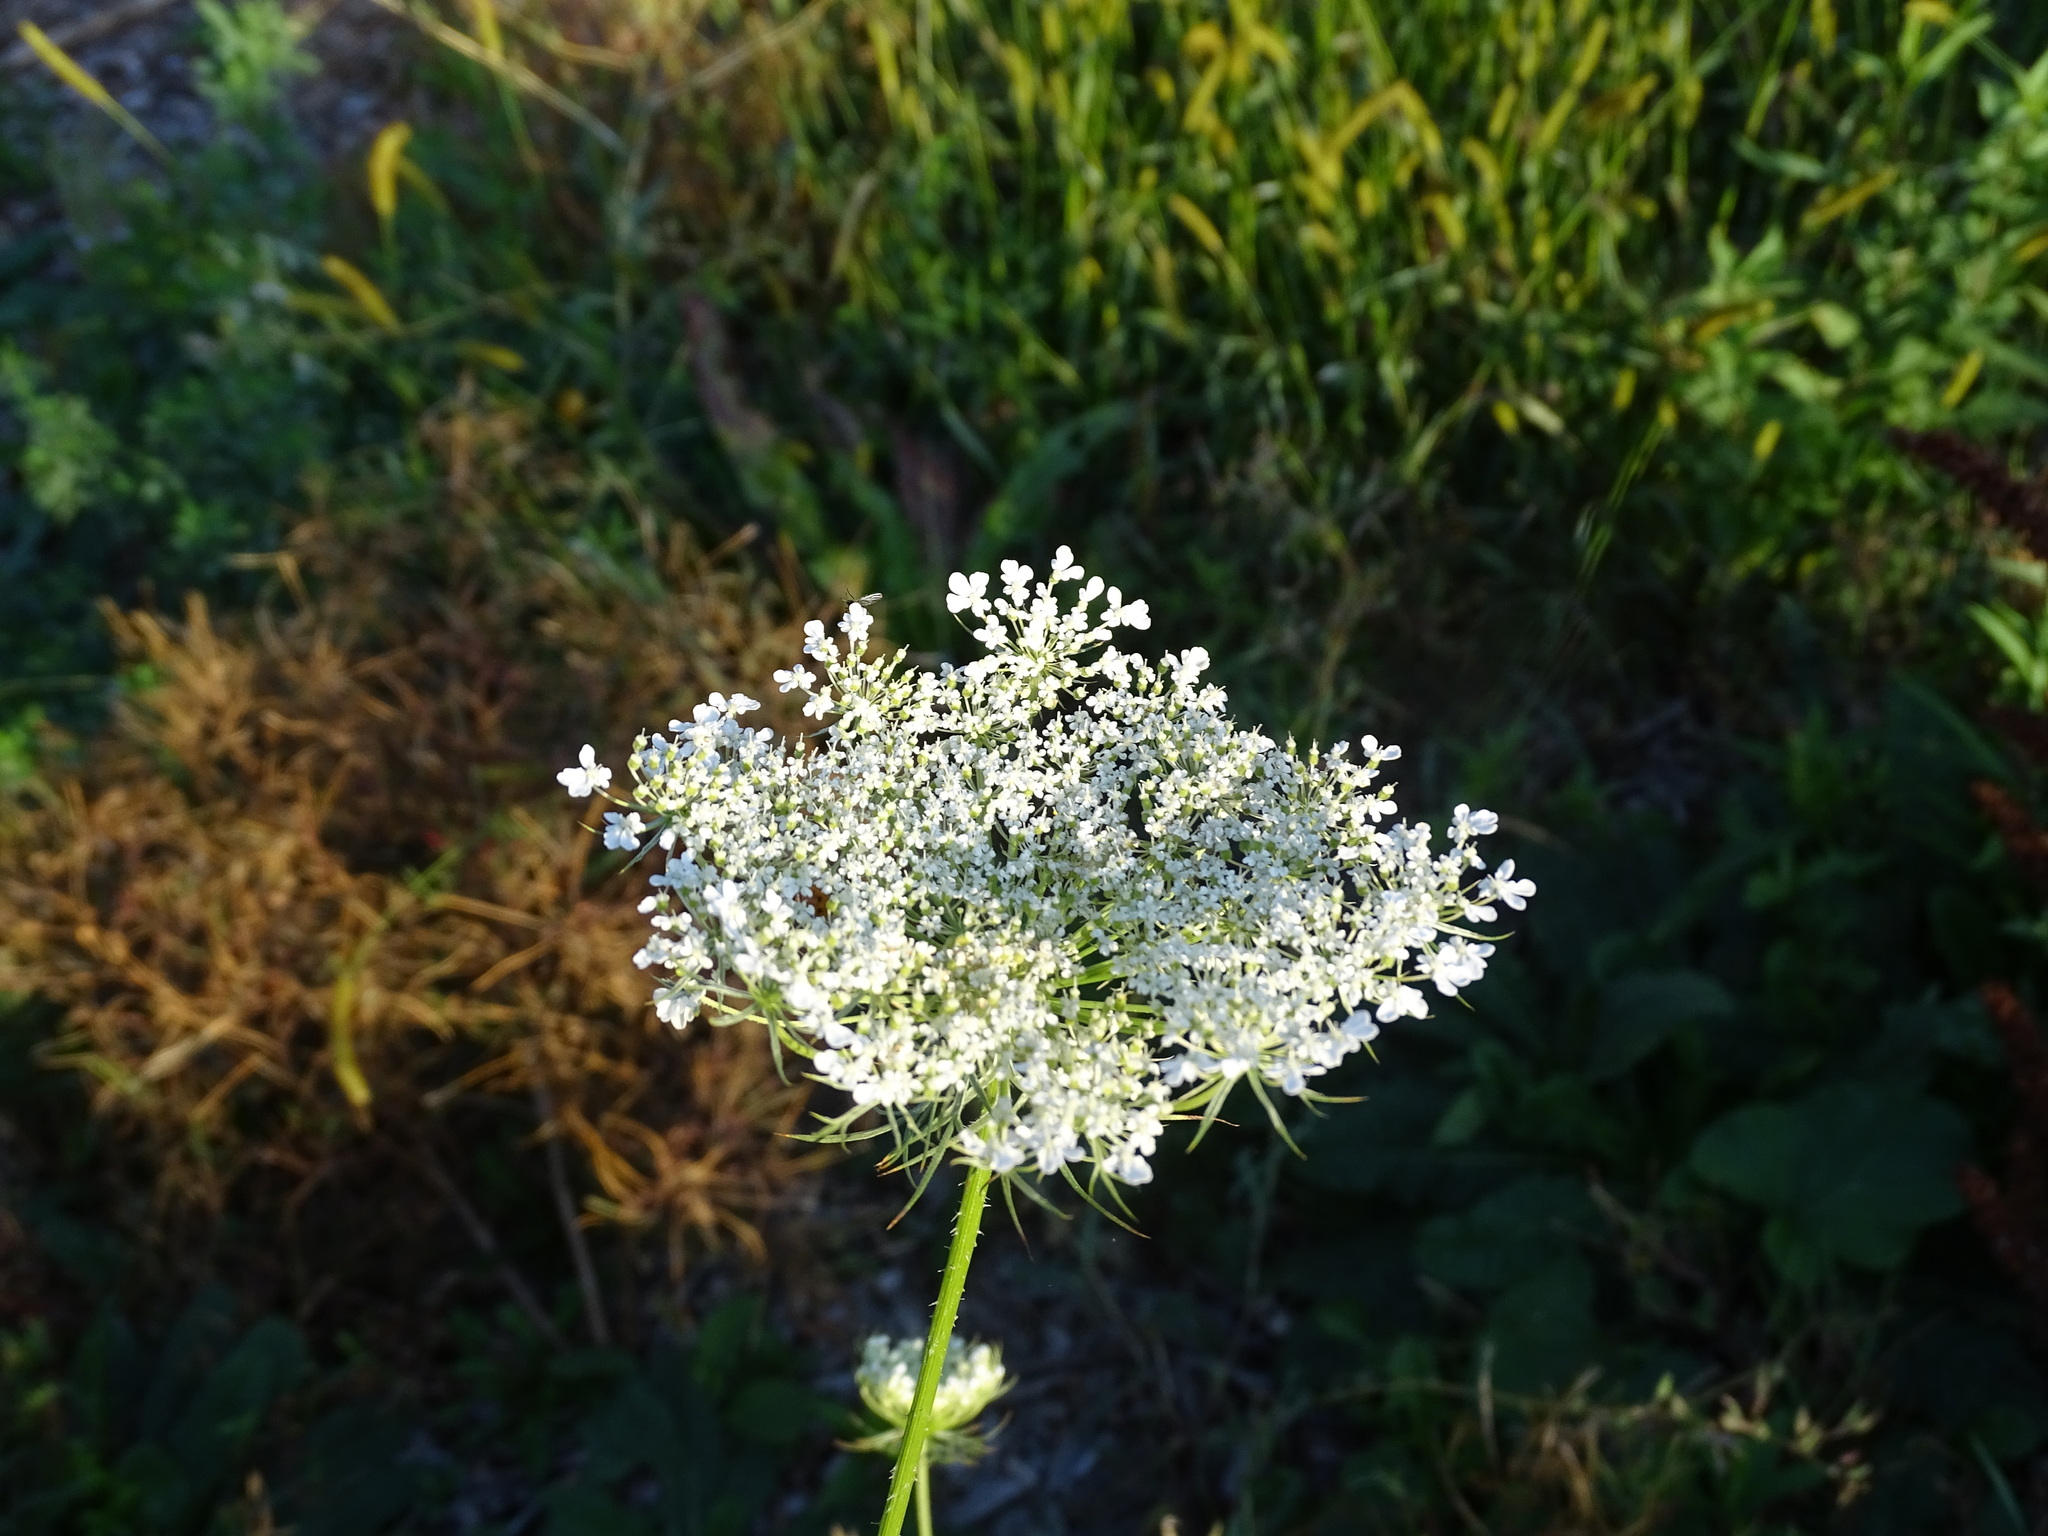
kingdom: Plantae
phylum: Tracheophyta
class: Magnoliopsida
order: Apiales
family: Apiaceae
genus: Daucus
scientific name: Daucus carota
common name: Wild carrot
